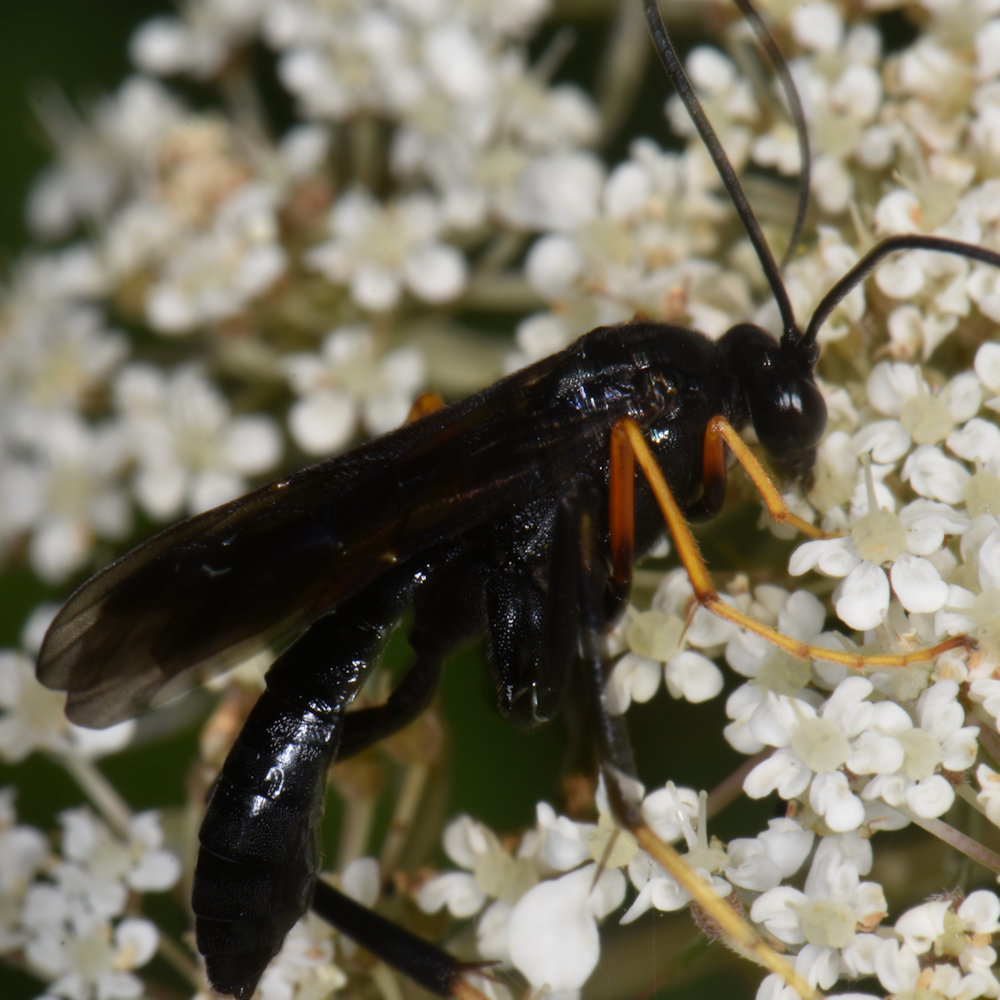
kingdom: Animalia
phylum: Arthropoda
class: Insecta
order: Hymenoptera
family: Ichneumonidae
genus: Exetastes
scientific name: Exetastes fornicator
